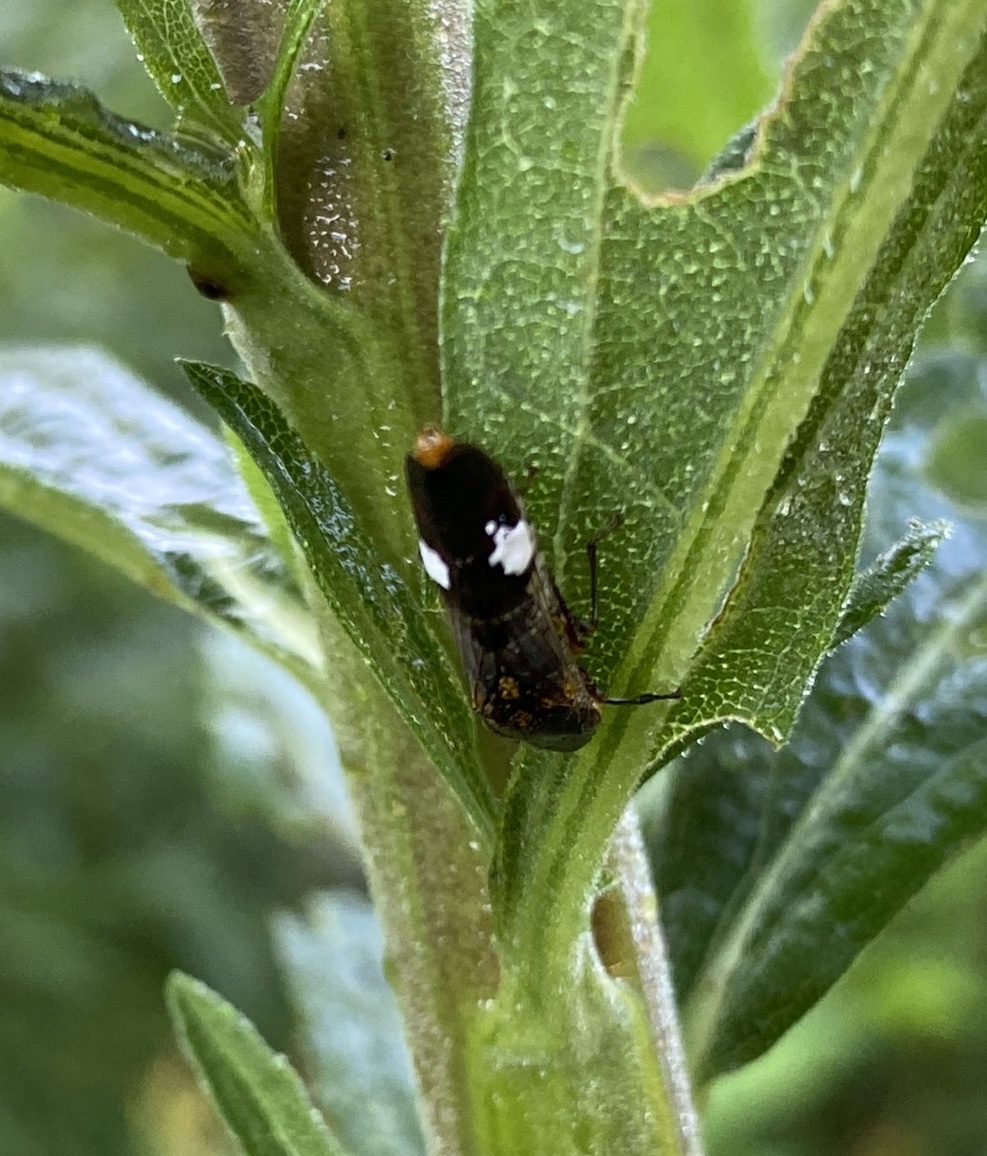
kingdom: Animalia
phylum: Arthropoda
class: Insecta
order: Hemiptera
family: Cicadellidae
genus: Homalodisca
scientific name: Homalodisca vitripennis
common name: Glassy-winged sharpshooter
